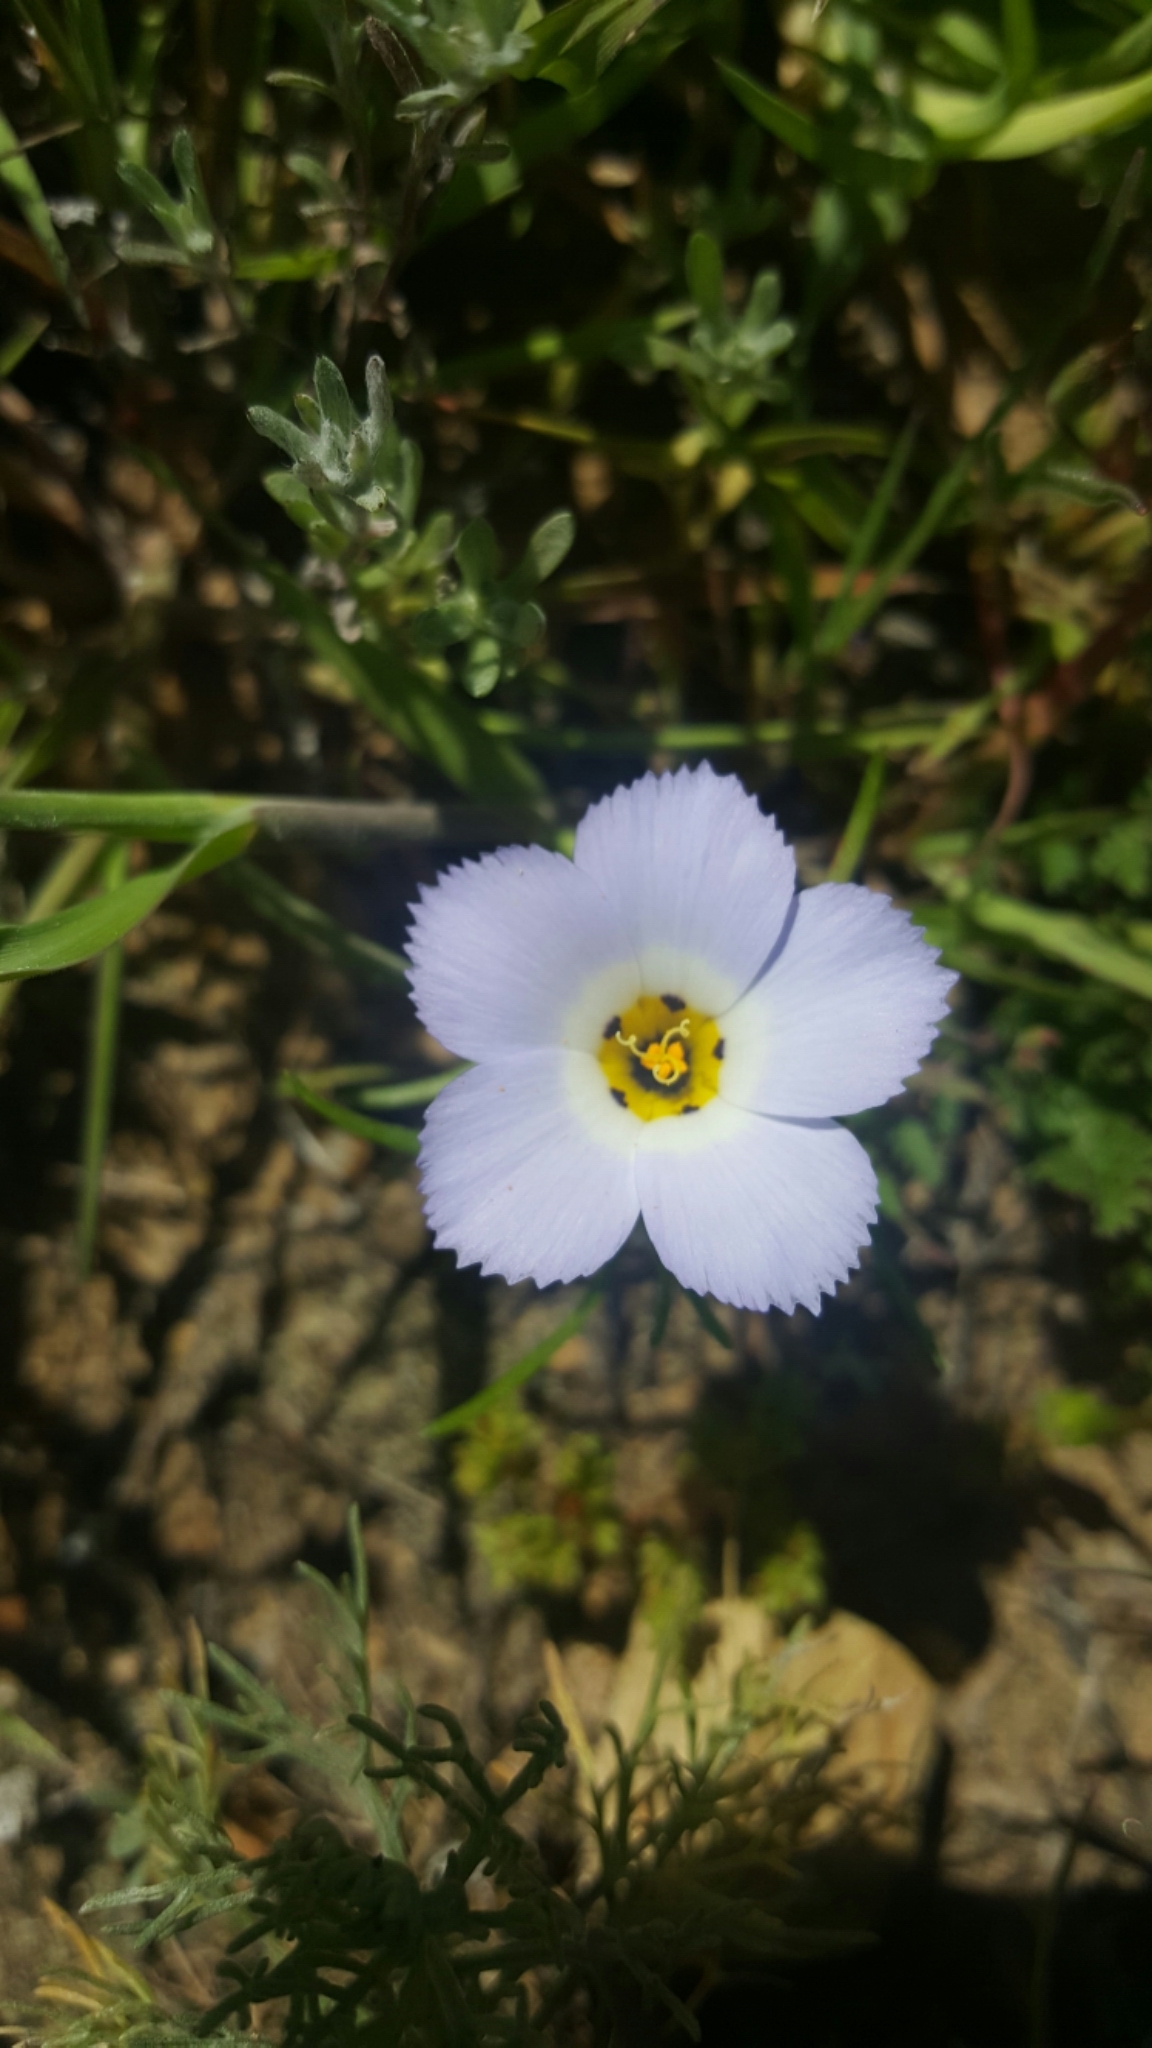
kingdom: Plantae
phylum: Tracheophyta
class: Magnoliopsida
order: Ericales
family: Polemoniaceae
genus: Linanthus
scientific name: Linanthus dianthiflorus
